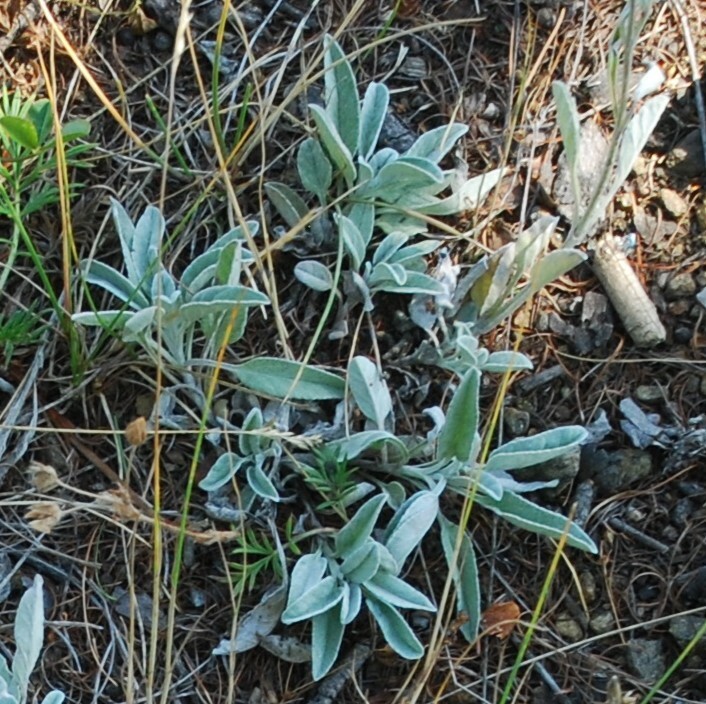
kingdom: Plantae
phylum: Tracheophyta
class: Magnoliopsida
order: Lamiales
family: Plantaginaceae
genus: Veronica
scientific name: Veronica incana
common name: Silver speedwell
